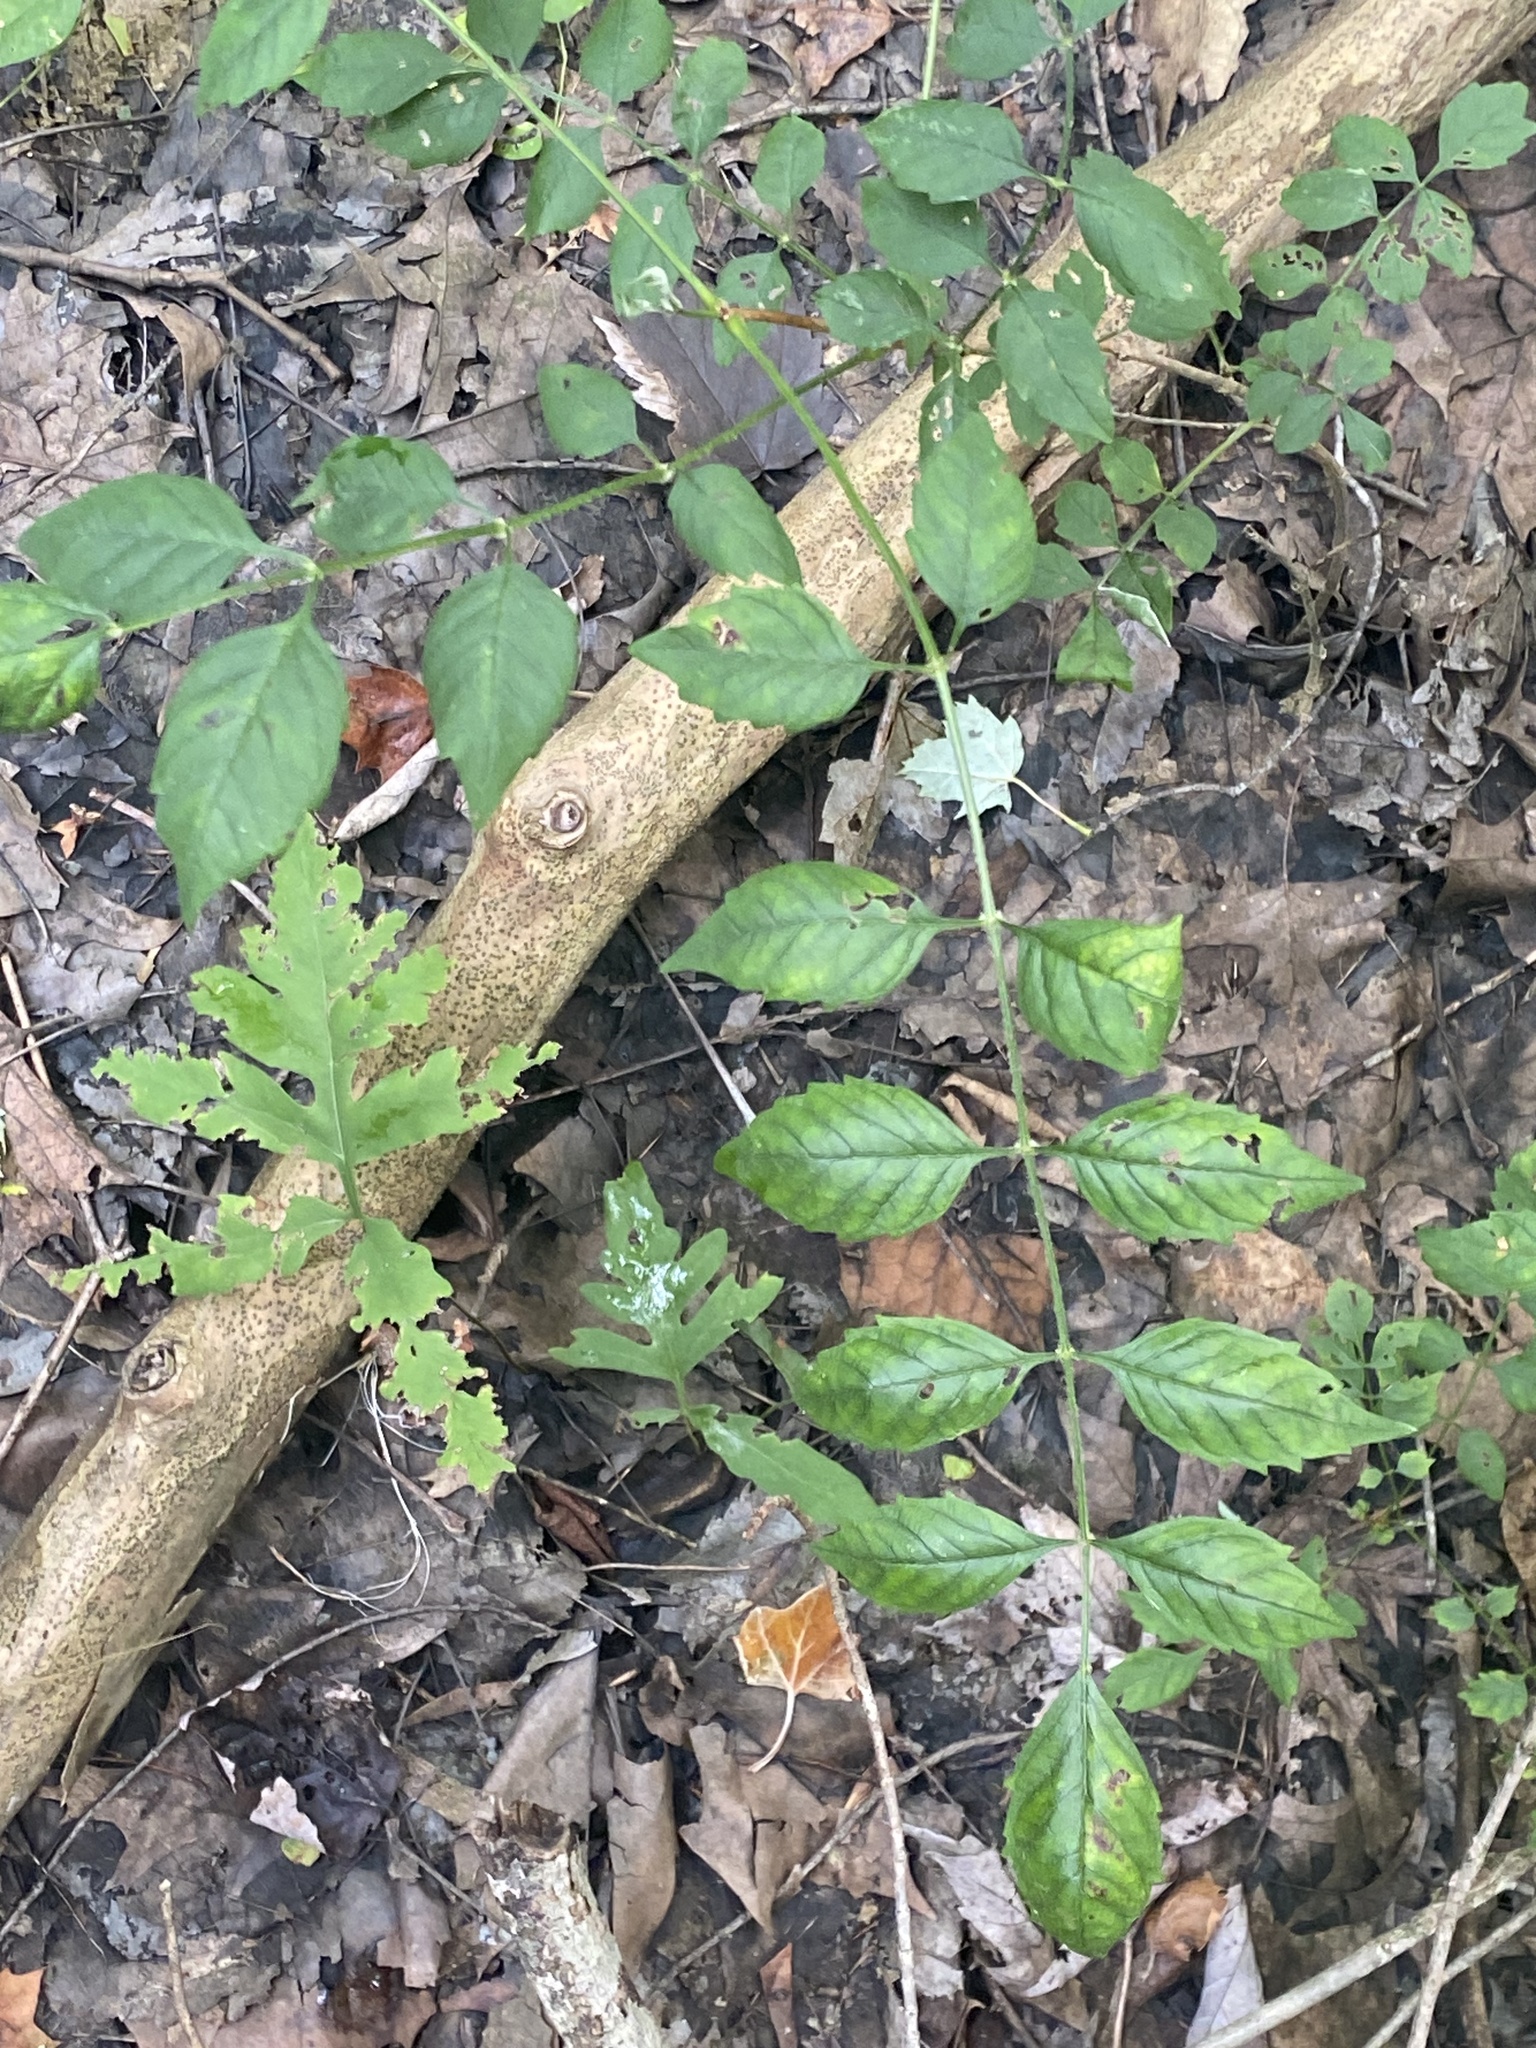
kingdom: Plantae
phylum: Tracheophyta
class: Magnoliopsida
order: Lamiales
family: Bignoniaceae
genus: Campsis
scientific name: Campsis radicans
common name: Trumpet-creeper
